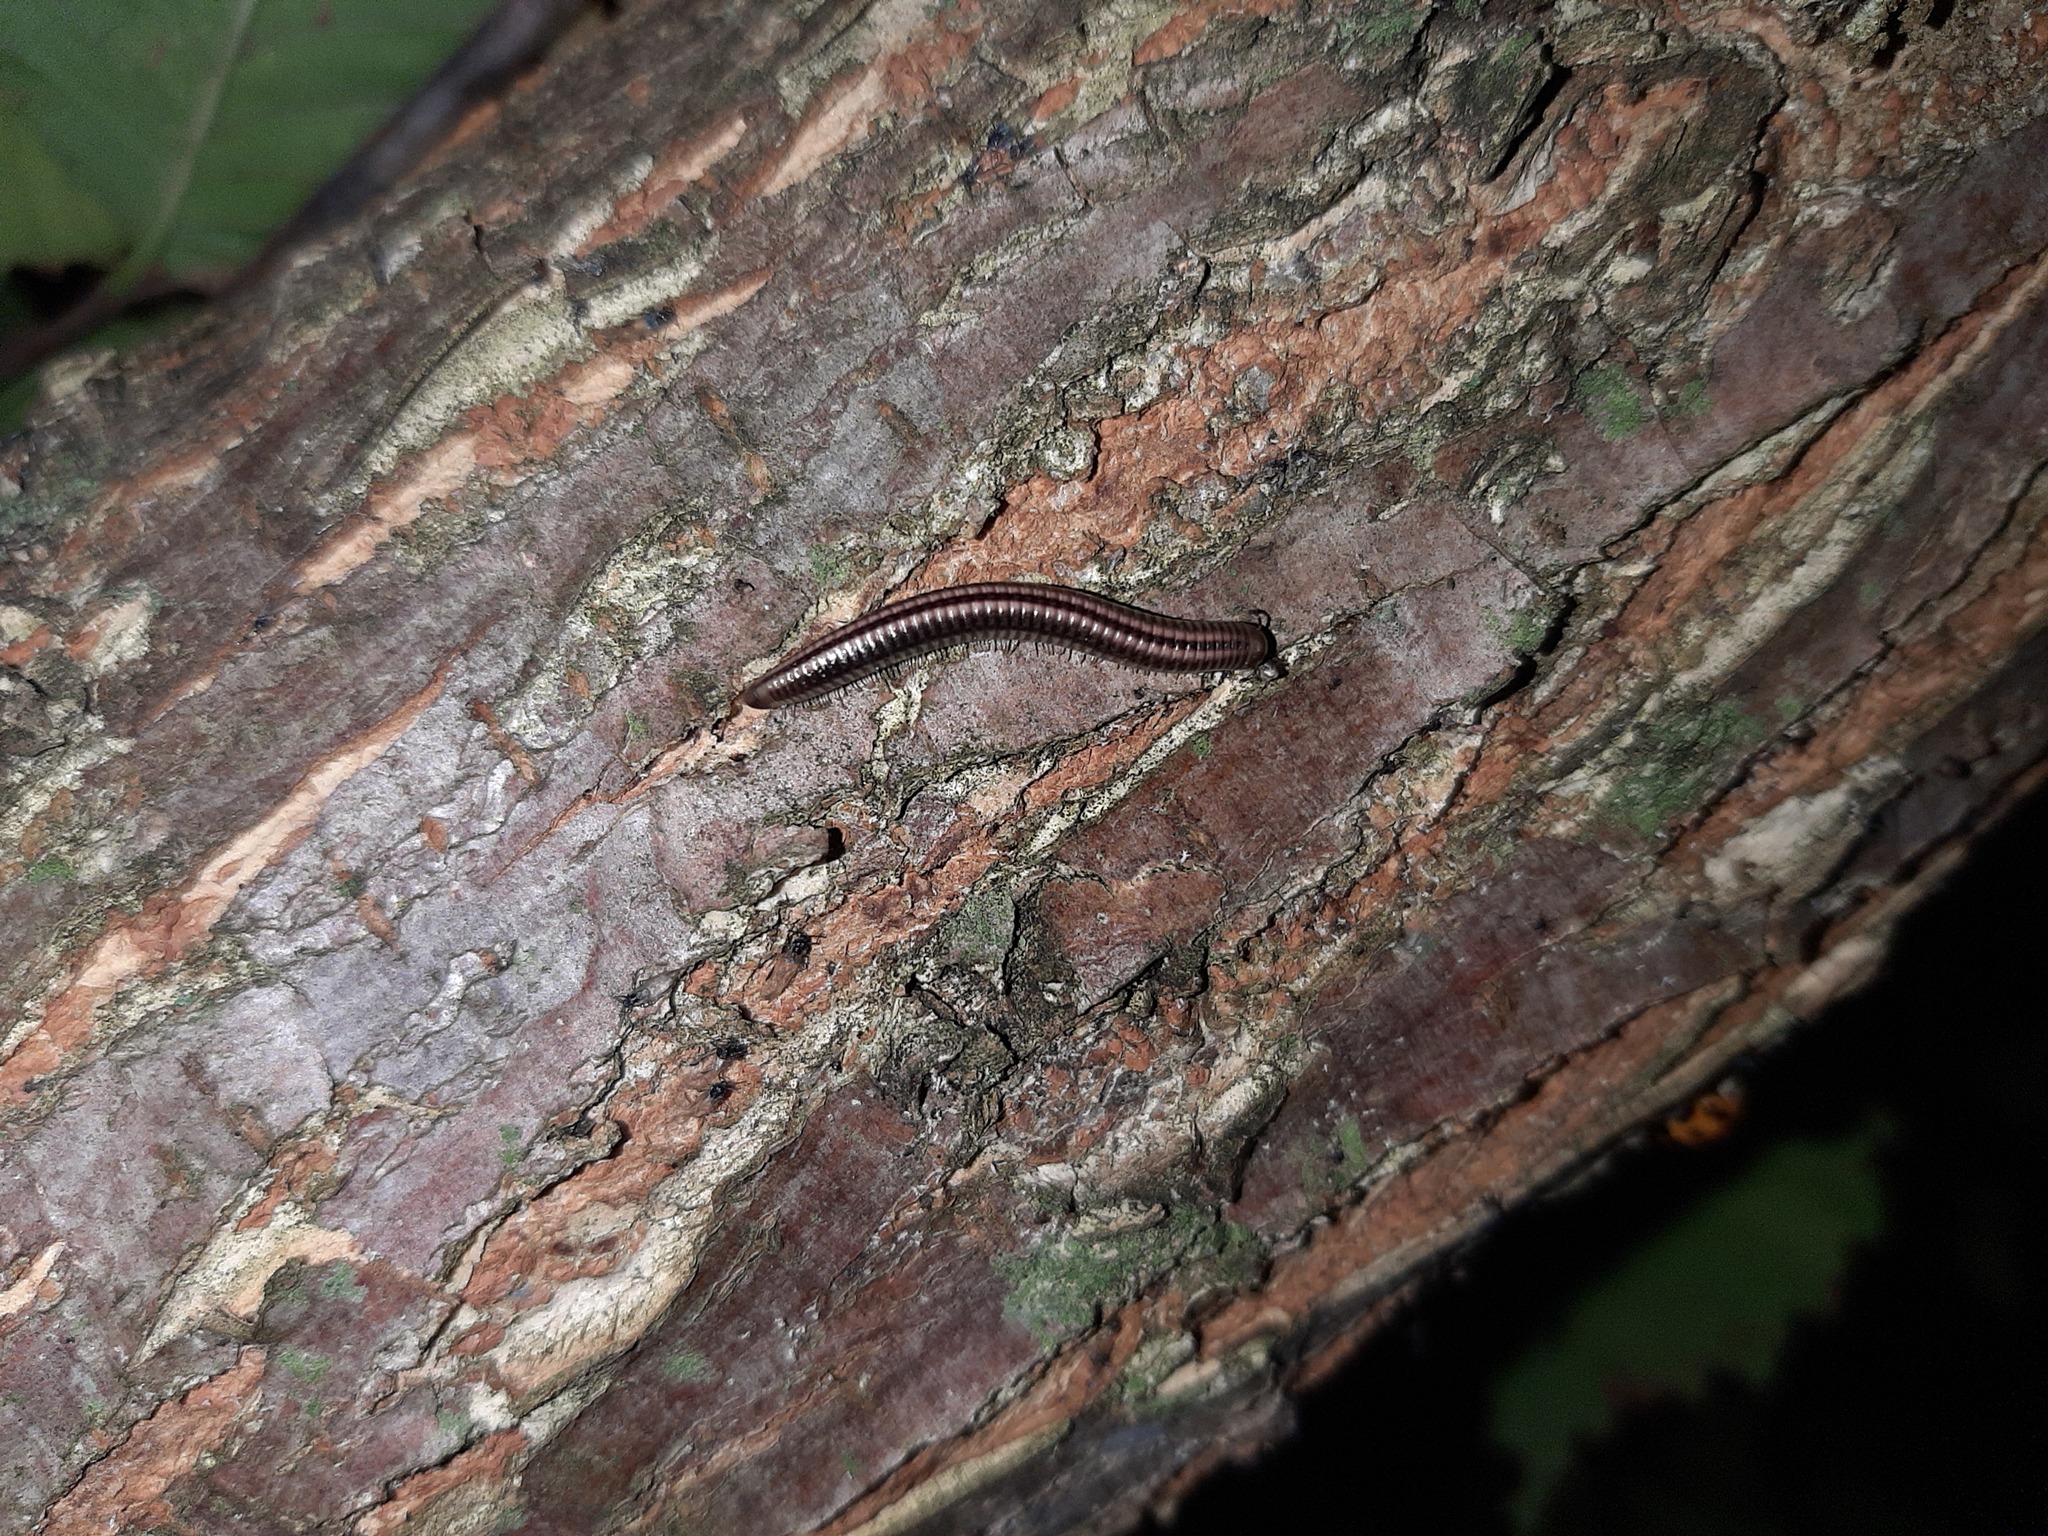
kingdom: Animalia
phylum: Arthropoda
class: Diplopoda
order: Julida
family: Julidae
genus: Ommatoiulus
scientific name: Ommatoiulus sabulosus
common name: Striped millipede
